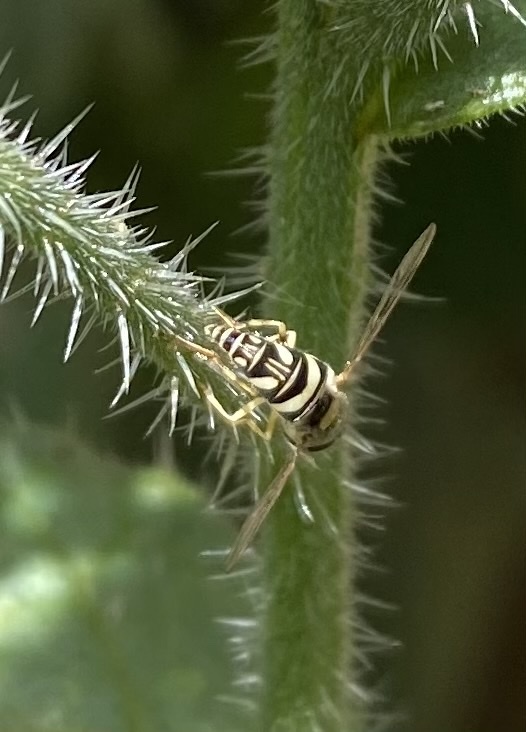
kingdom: Animalia
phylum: Arthropoda
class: Insecta
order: Diptera
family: Syrphidae
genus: Allograpta
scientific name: Allograpta exotica
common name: Syrphid fly
